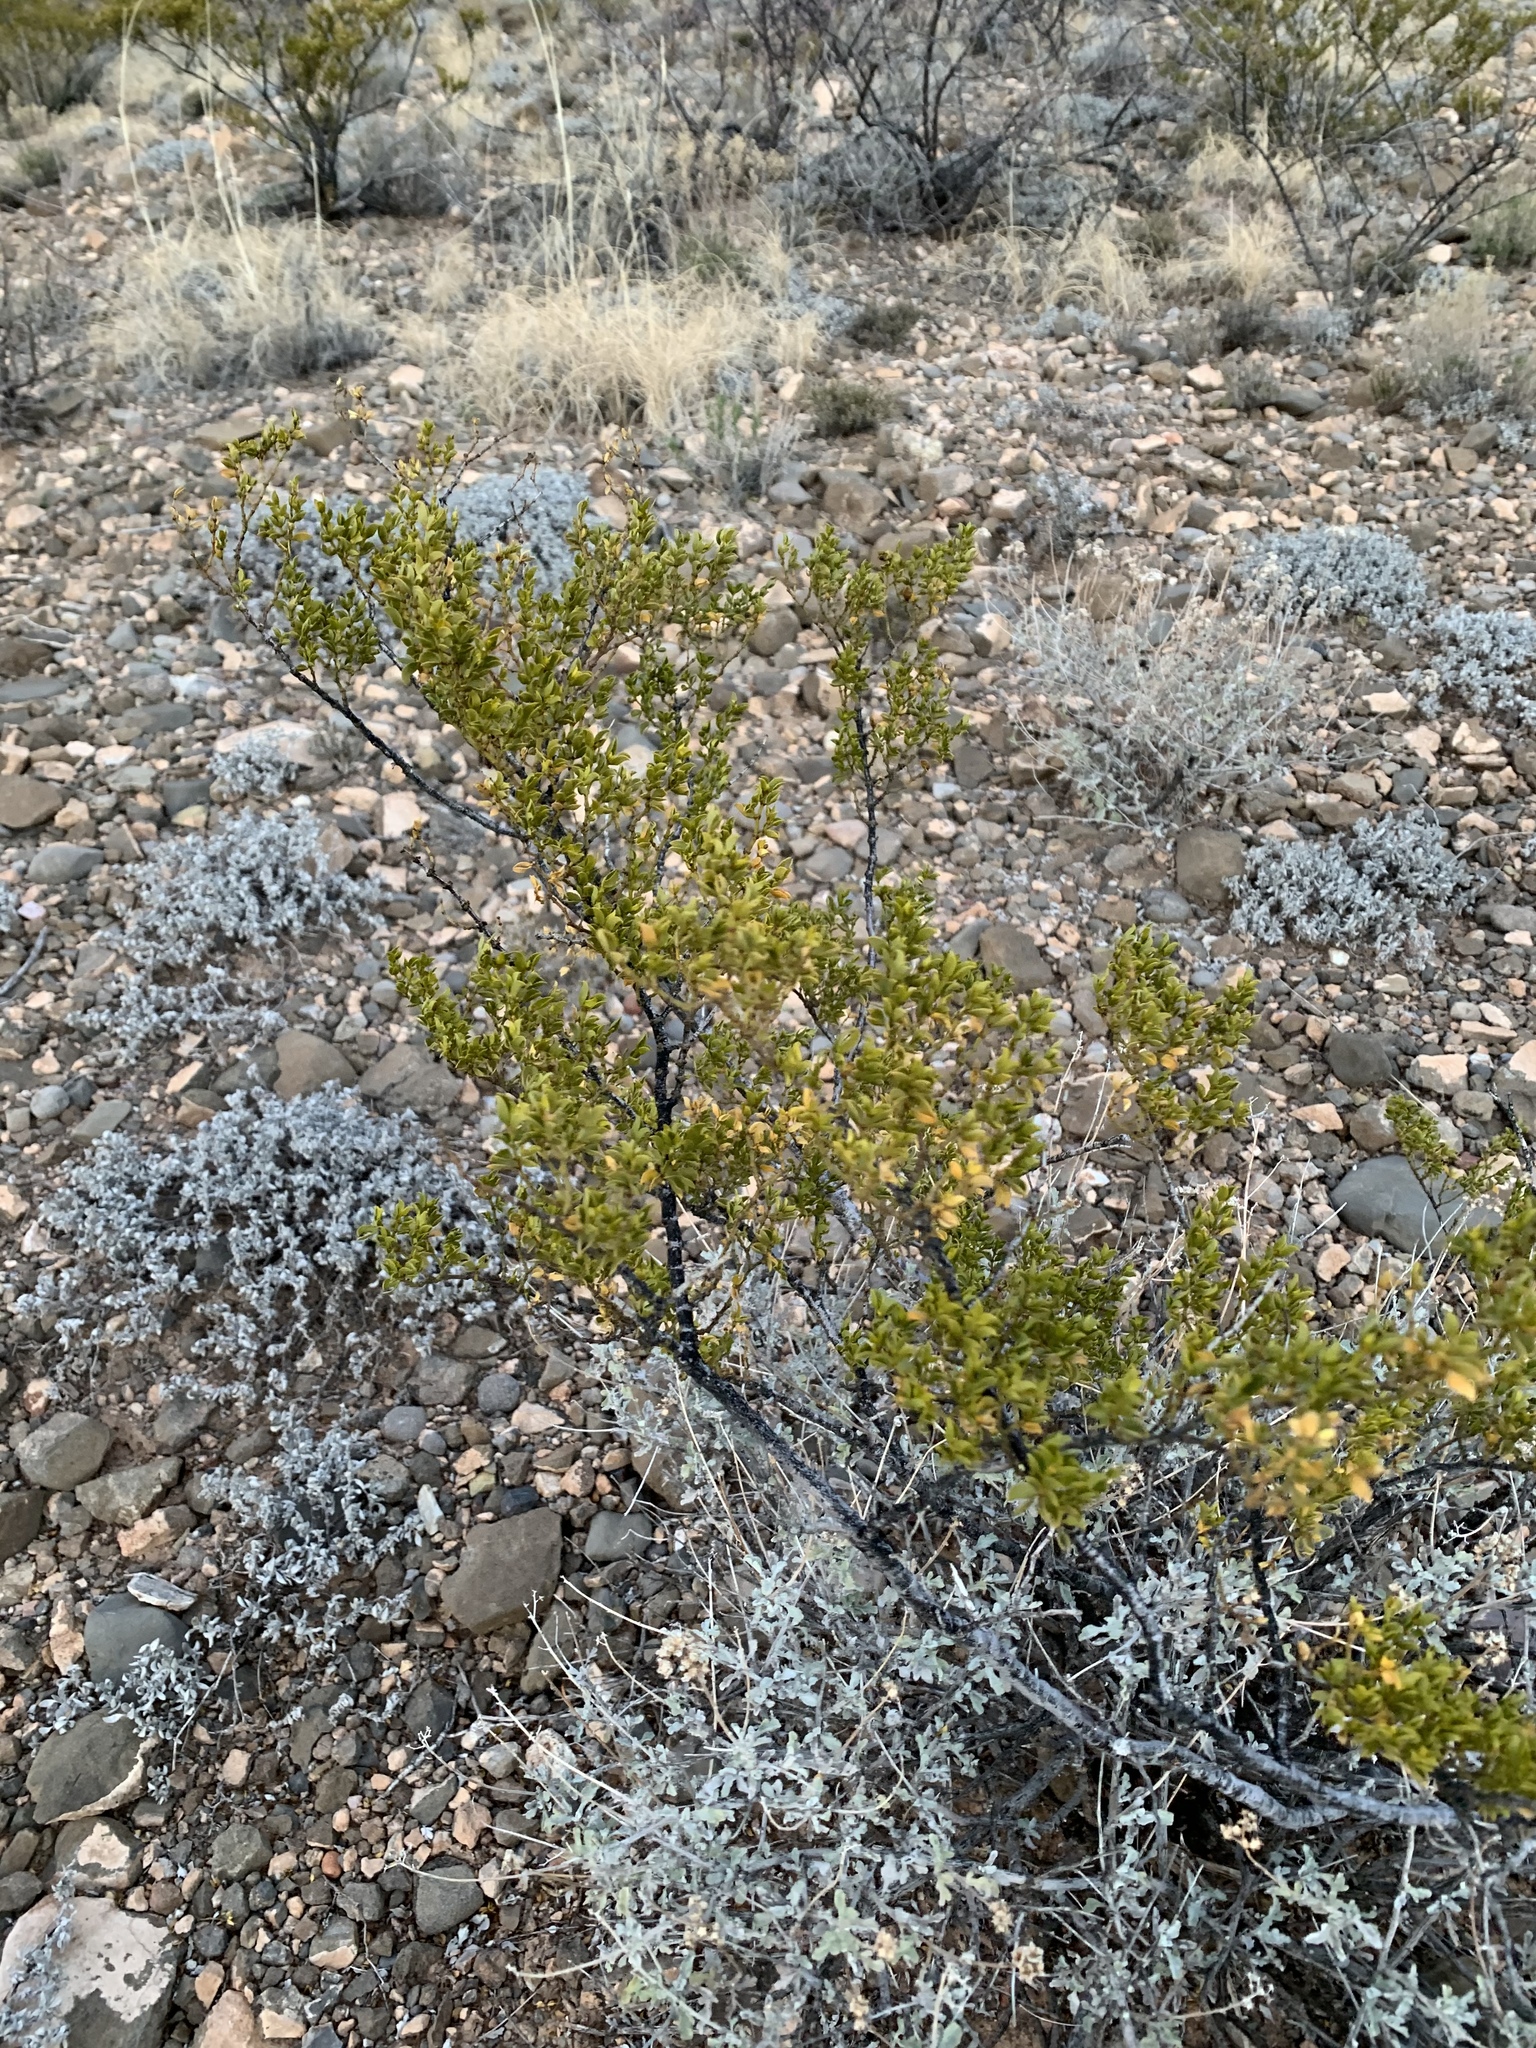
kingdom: Plantae
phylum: Tracheophyta
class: Magnoliopsida
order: Zygophyllales
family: Zygophyllaceae
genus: Larrea
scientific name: Larrea tridentata
